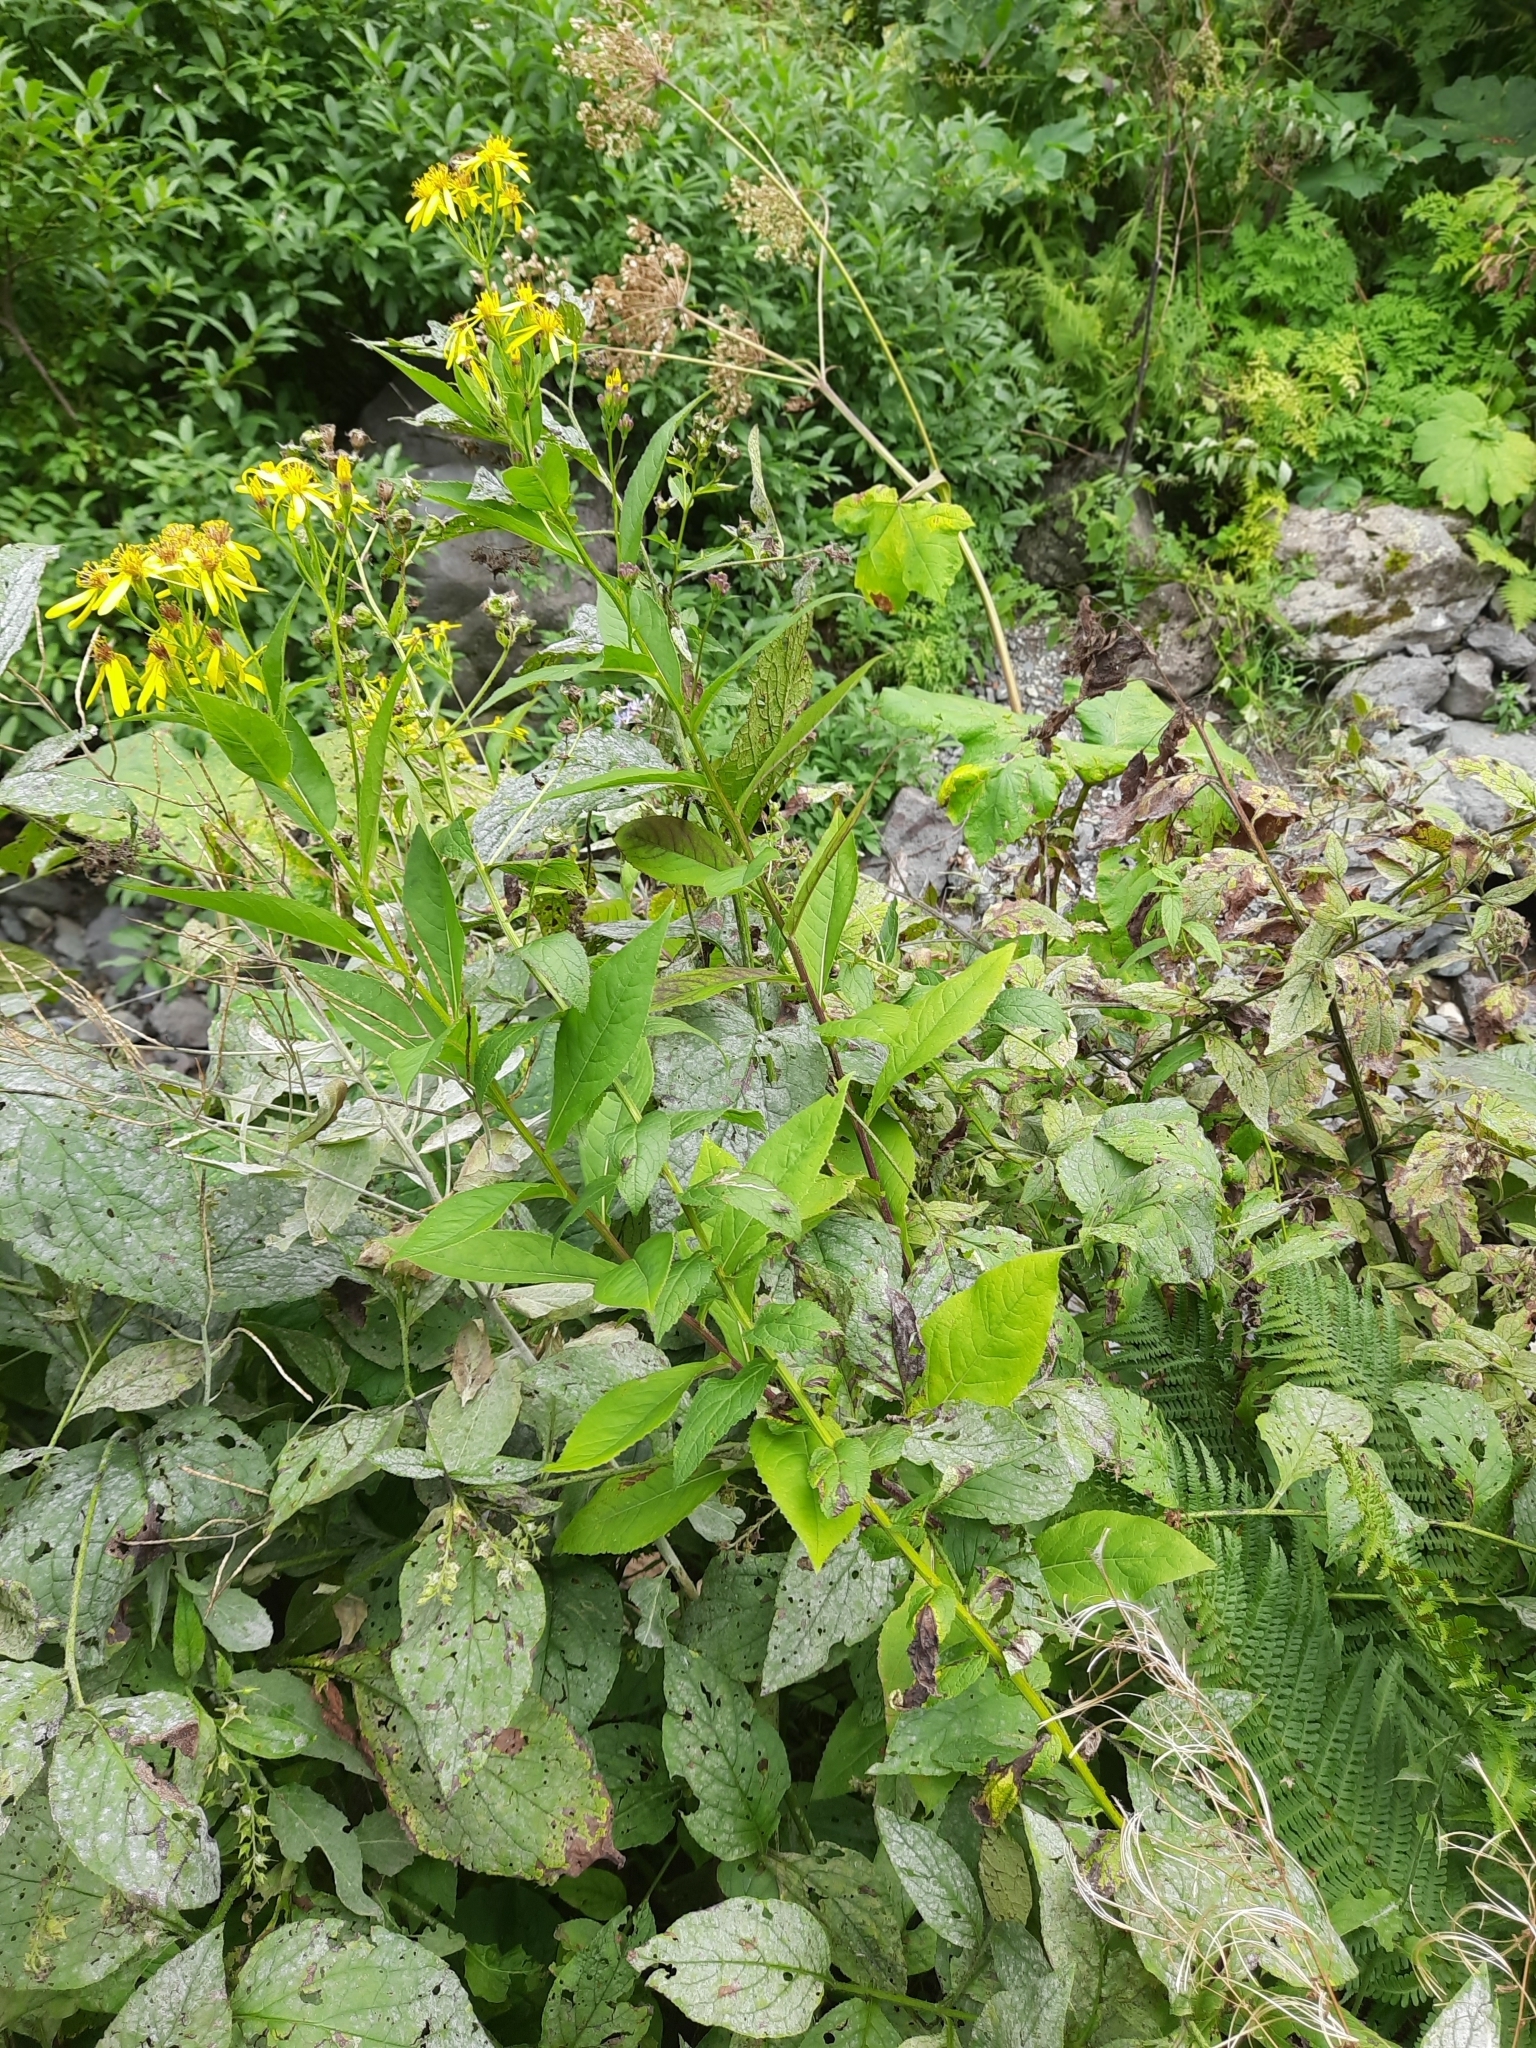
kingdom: Plantae
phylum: Tracheophyta
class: Magnoliopsida
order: Asterales
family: Asteraceae
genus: Senecio
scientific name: Senecio propinquus
